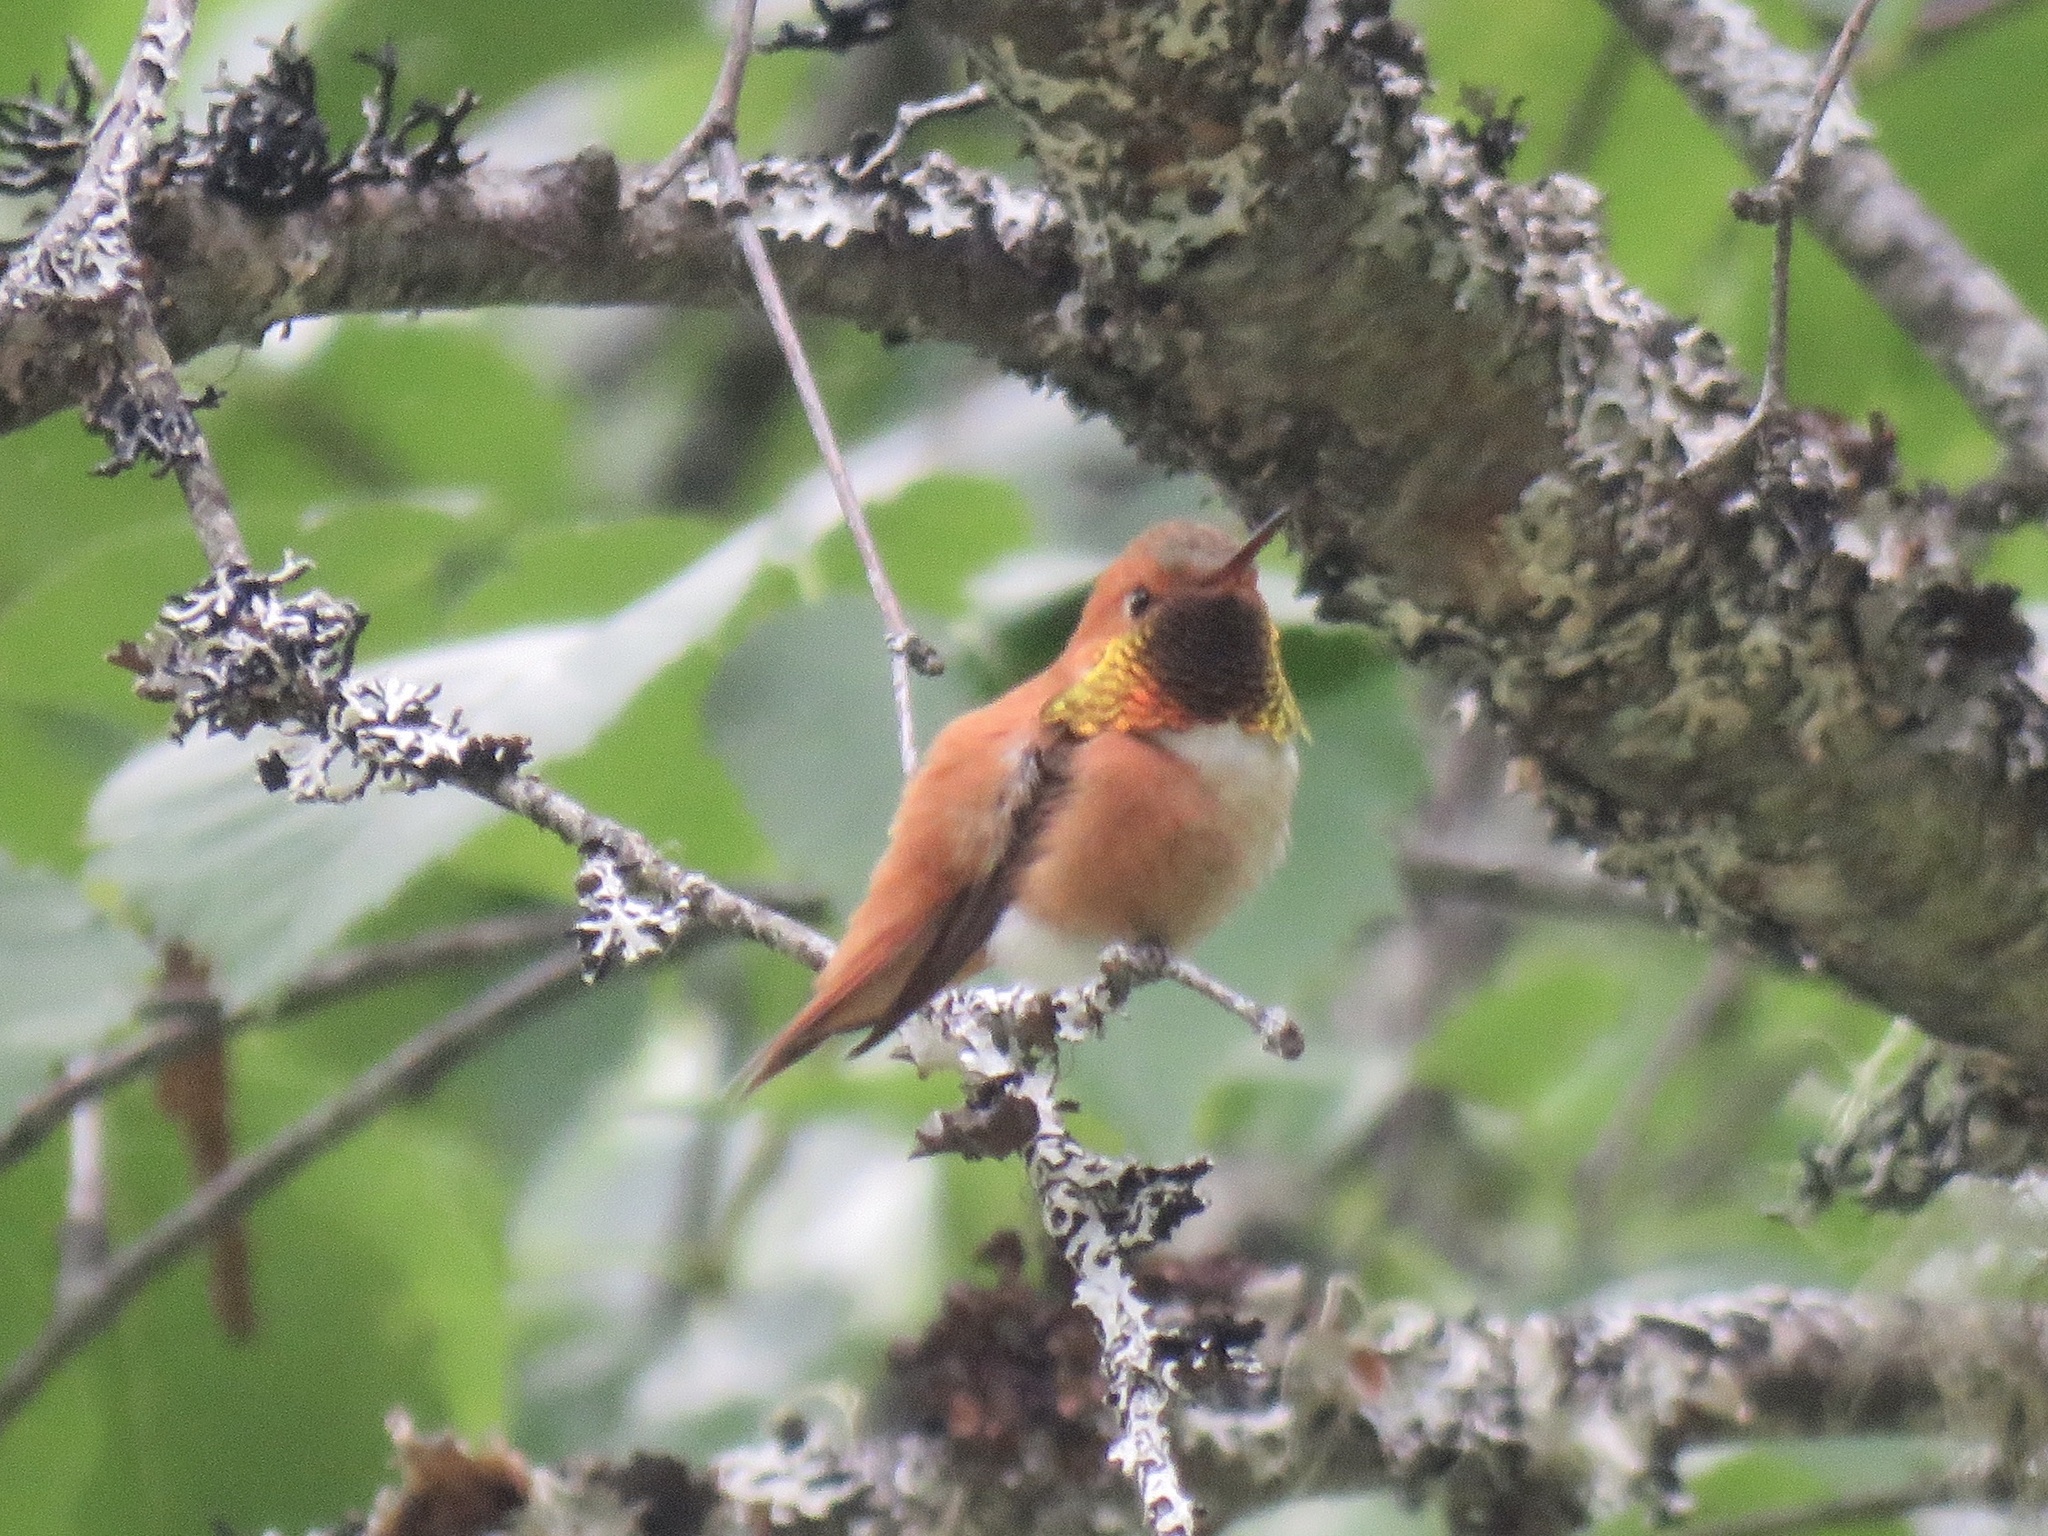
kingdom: Animalia
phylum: Chordata
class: Aves
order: Apodiformes
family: Trochilidae
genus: Selasphorus
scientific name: Selasphorus rufus
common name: Rufous hummingbird
